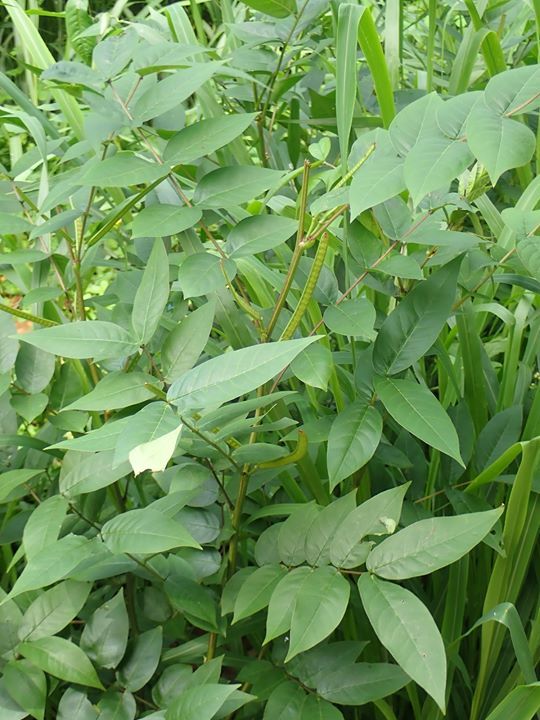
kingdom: Plantae
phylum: Tracheophyta
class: Magnoliopsida
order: Fabales
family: Fabaceae
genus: Senna
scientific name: Senna occidentalis
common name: Septicweed
